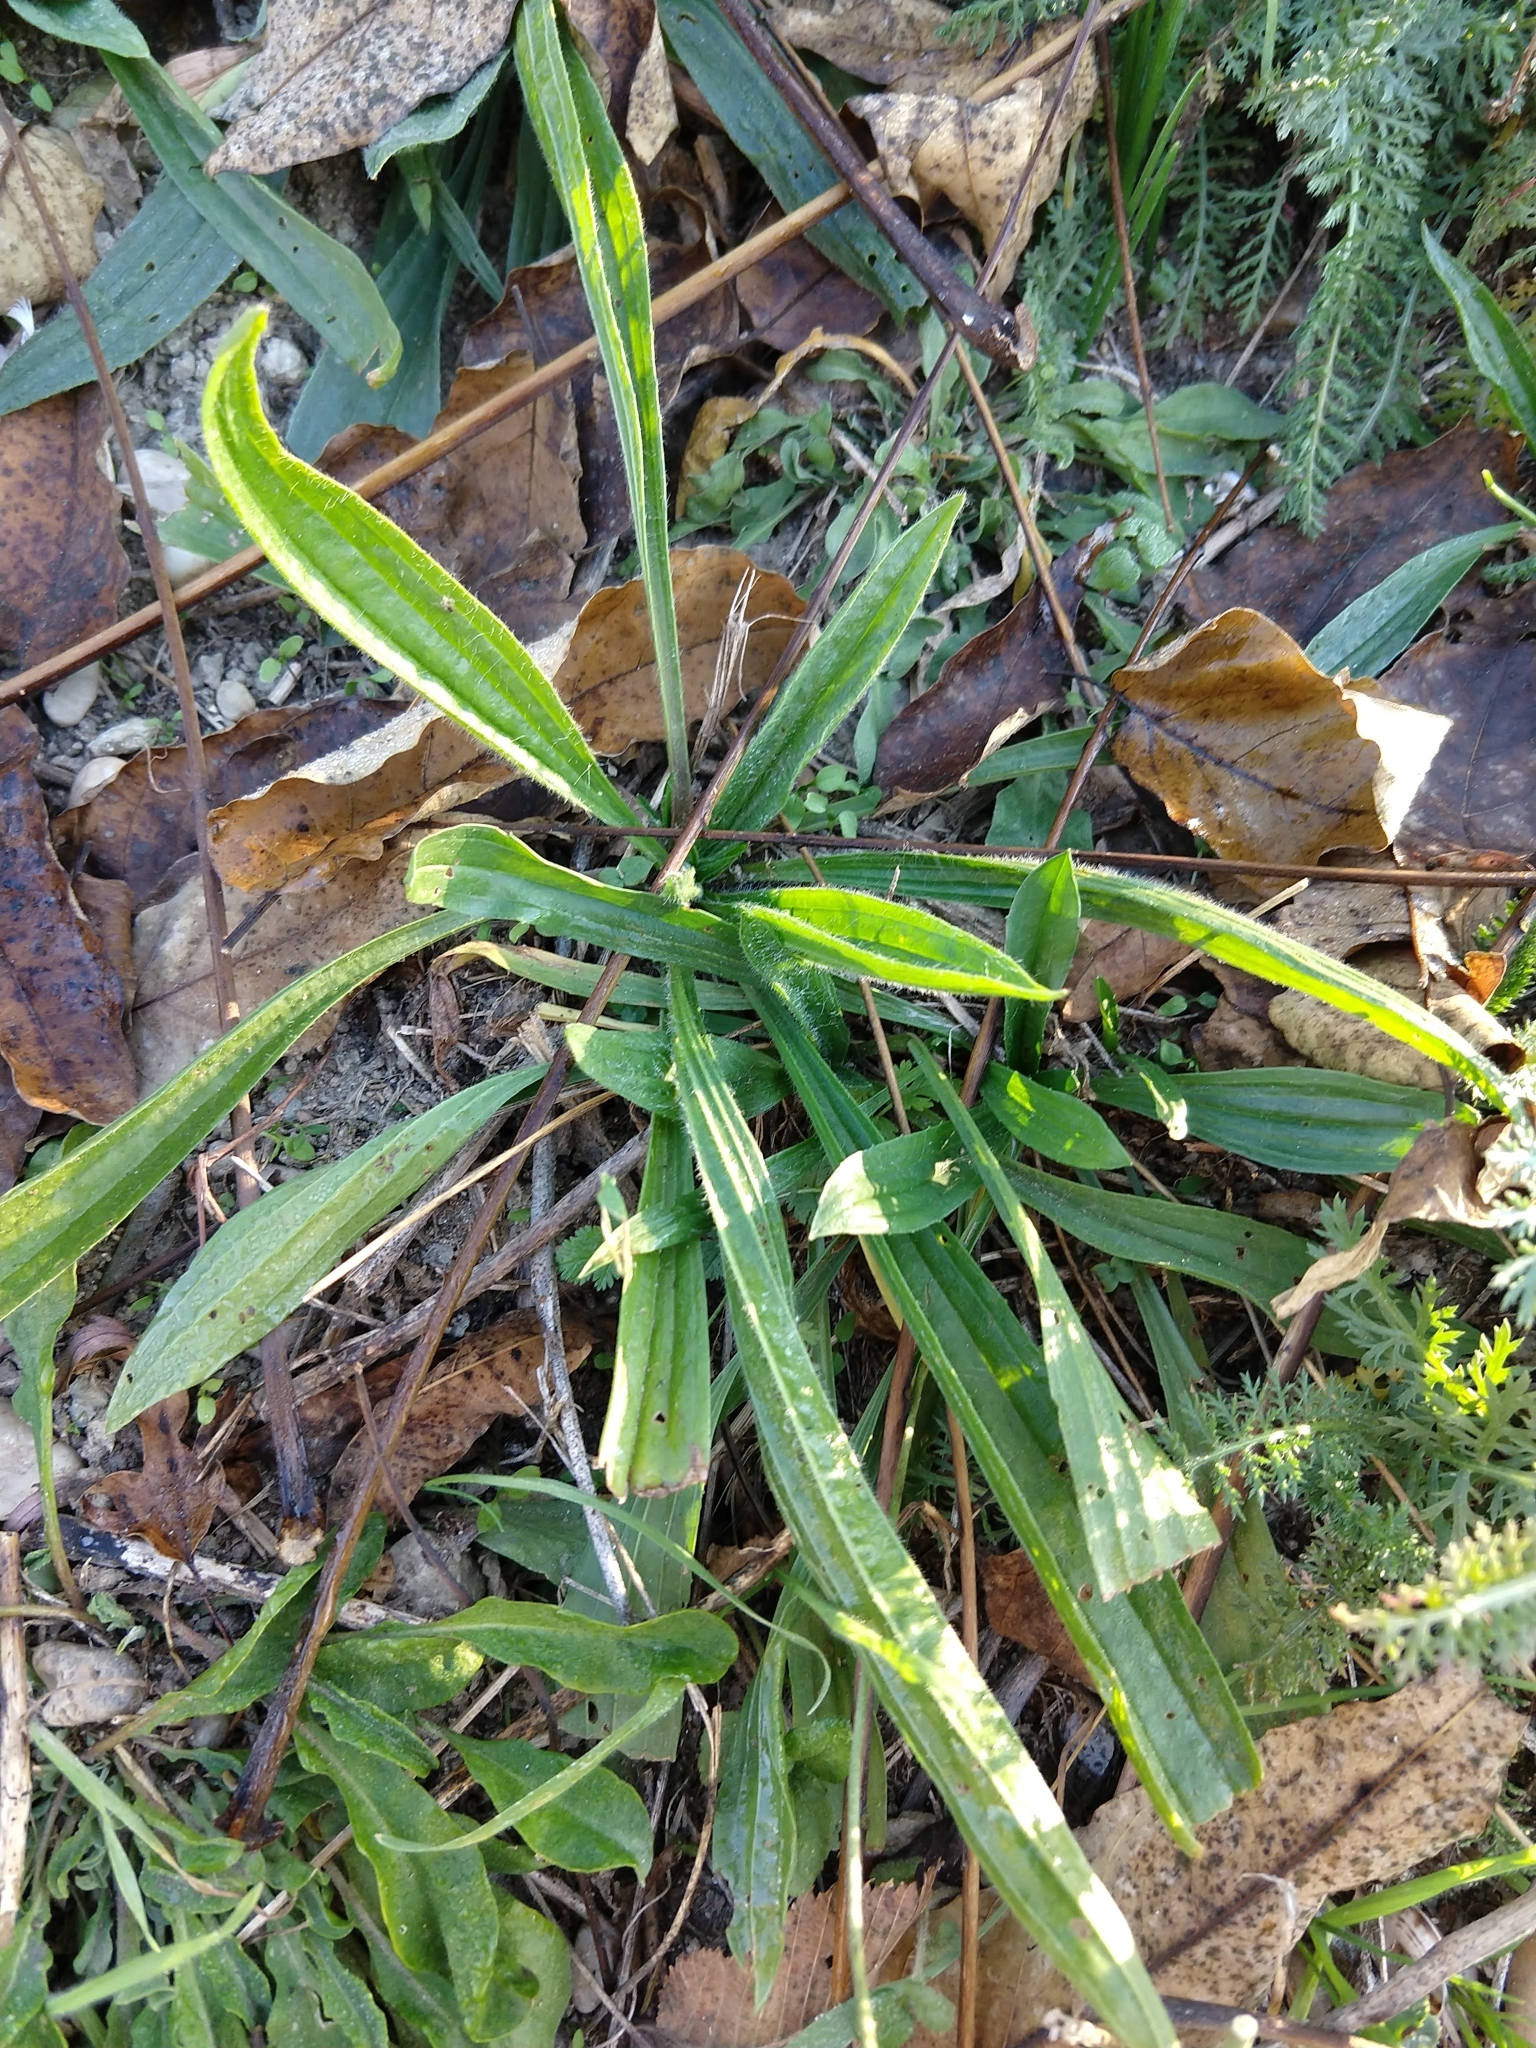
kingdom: Plantae
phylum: Tracheophyta
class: Magnoliopsida
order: Lamiales
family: Plantaginaceae
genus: Plantago
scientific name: Plantago lanceolata
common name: Ribwort plantain
